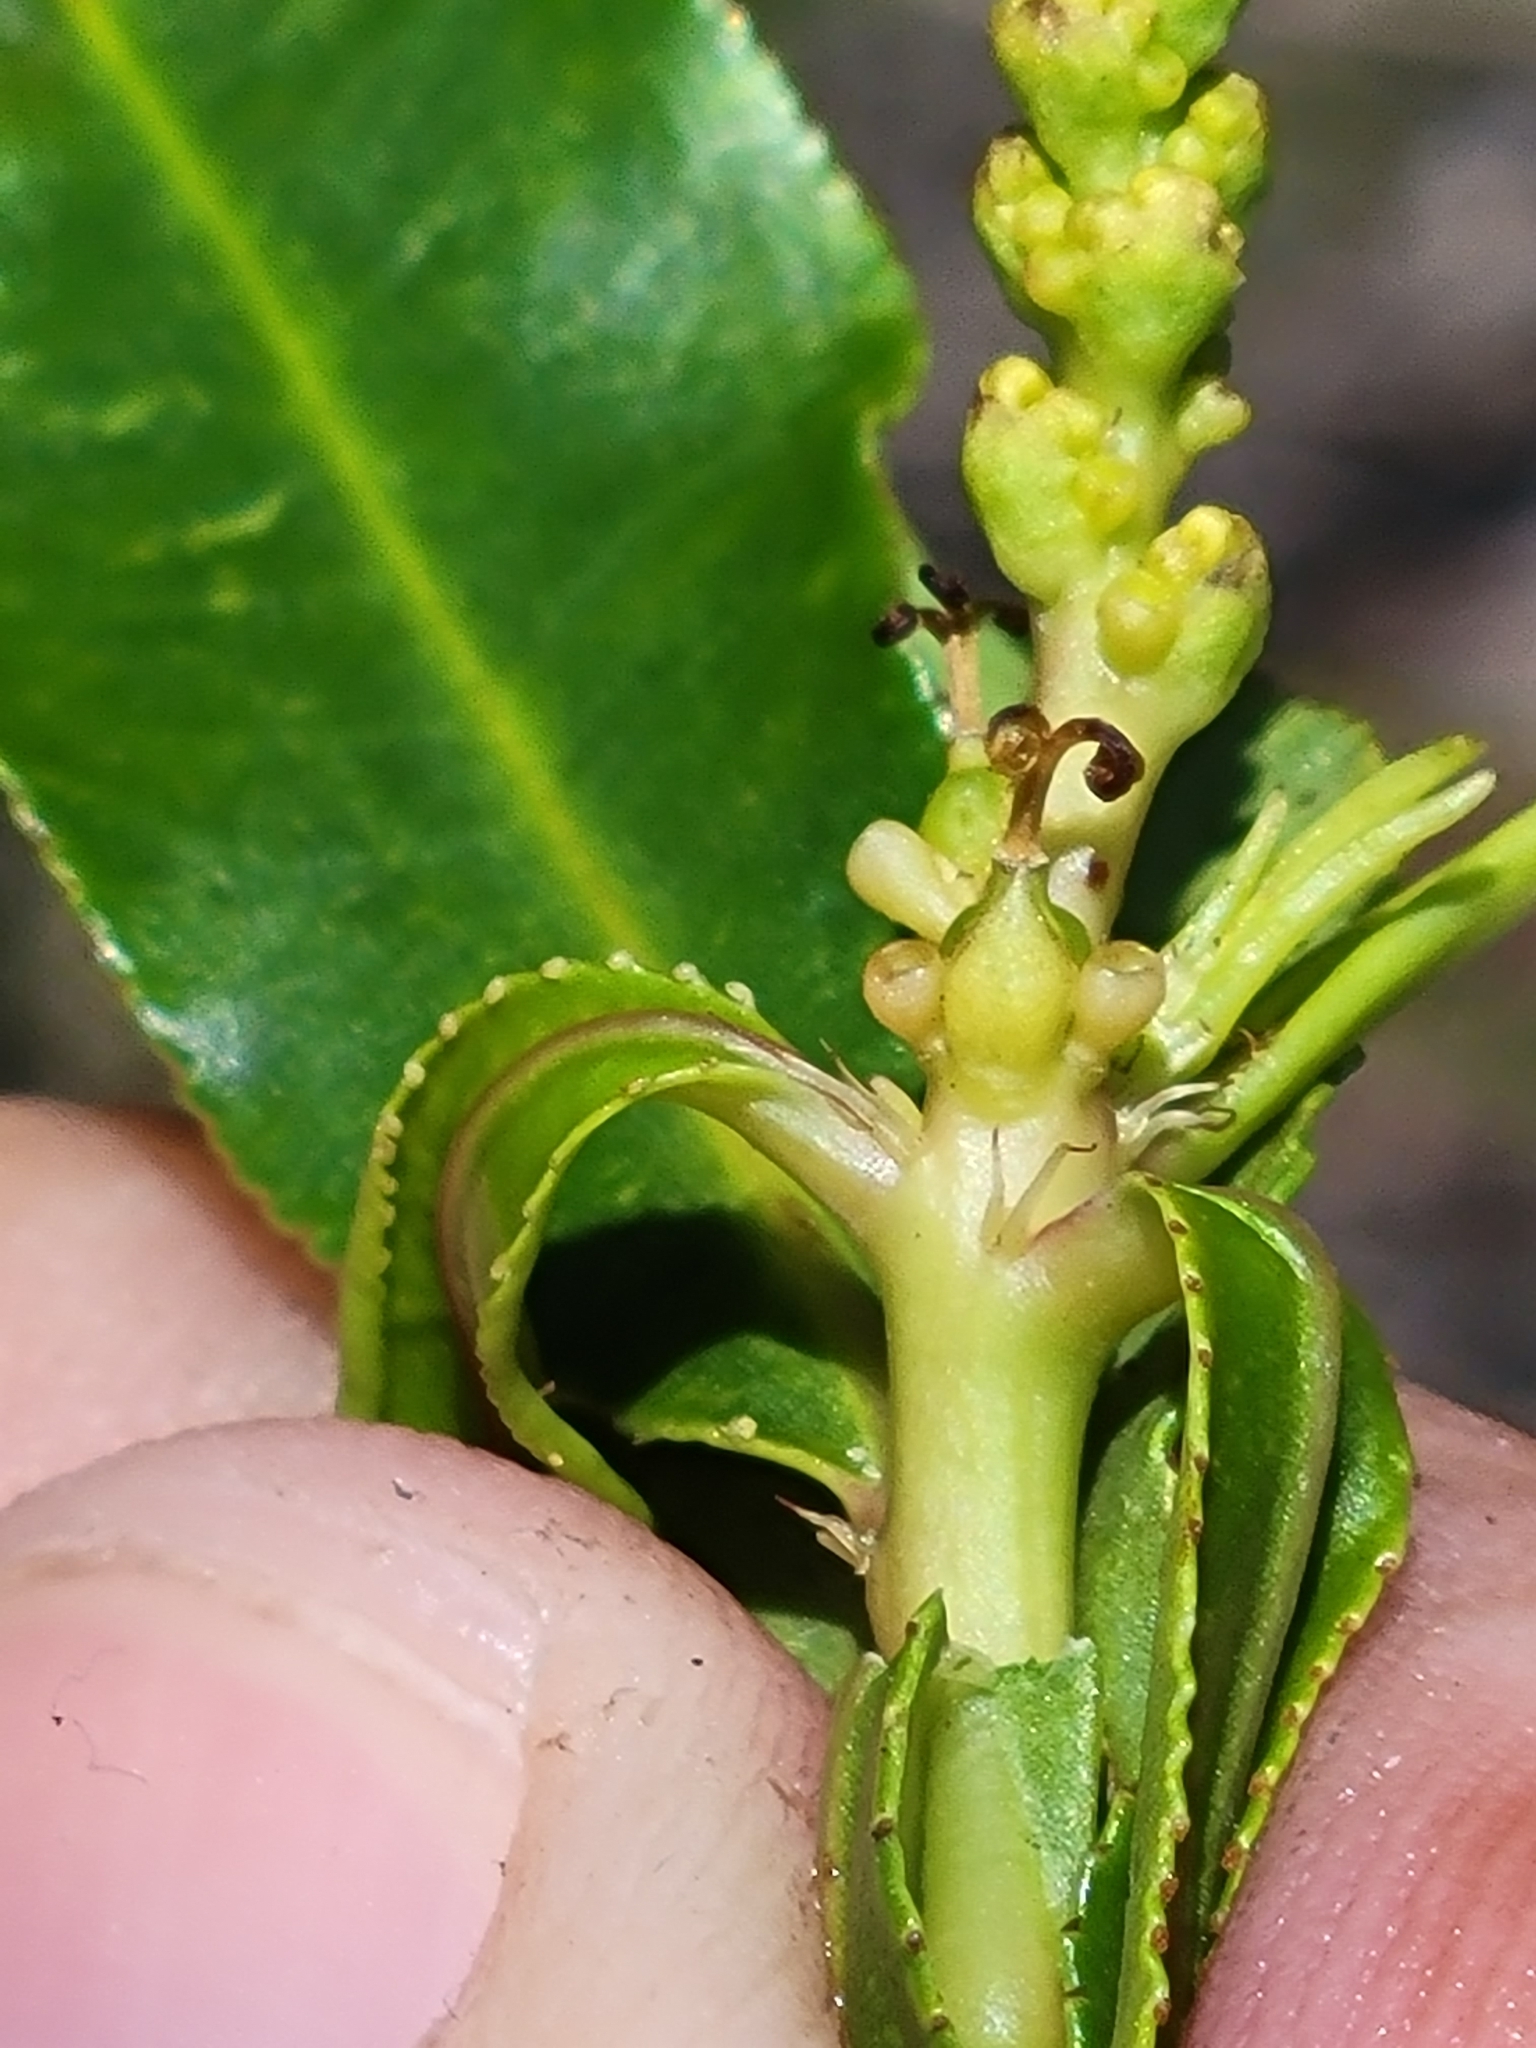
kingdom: Plantae
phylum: Tracheophyta
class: Magnoliopsida
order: Malpighiales
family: Euphorbiaceae
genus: Stillingia
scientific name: Stillingia sylvatica
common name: Queen's-delight
